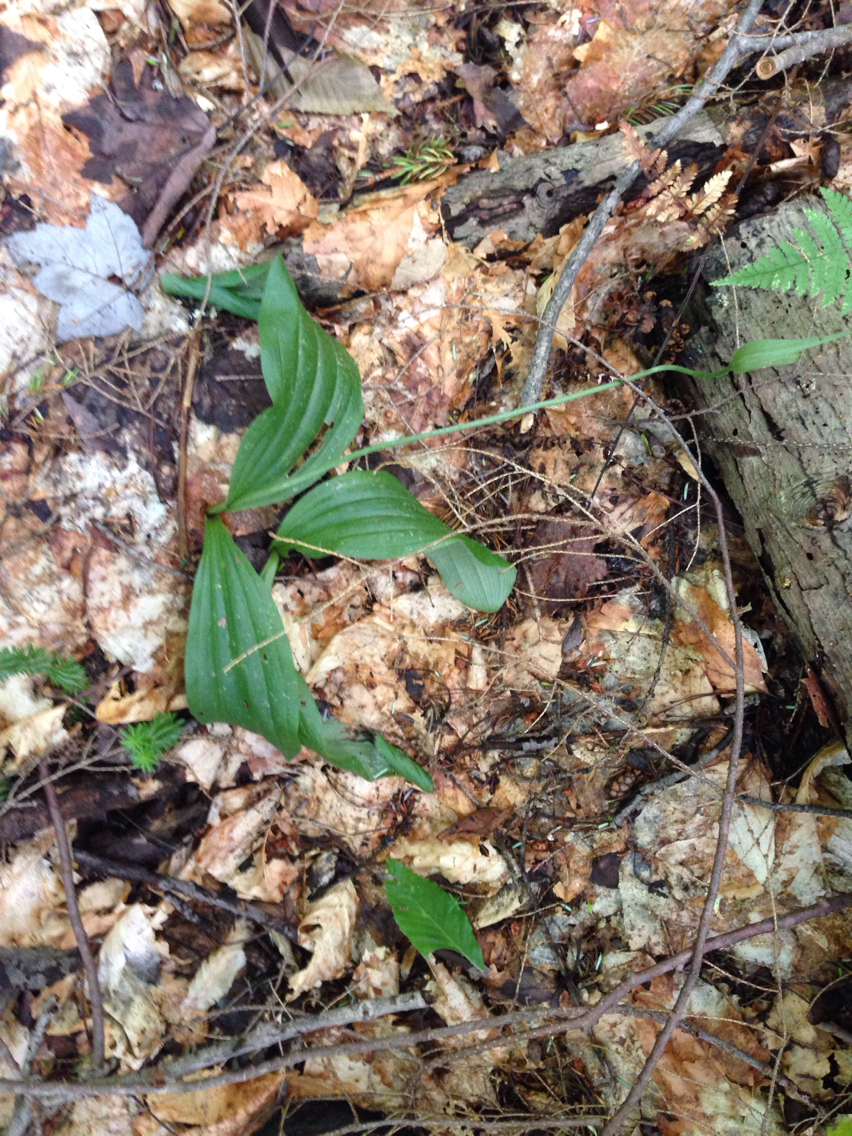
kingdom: Plantae
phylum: Tracheophyta
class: Liliopsida
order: Asparagales
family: Orchidaceae
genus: Cypripedium
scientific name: Cypripedium acaule
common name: Pink lady's-slipper
